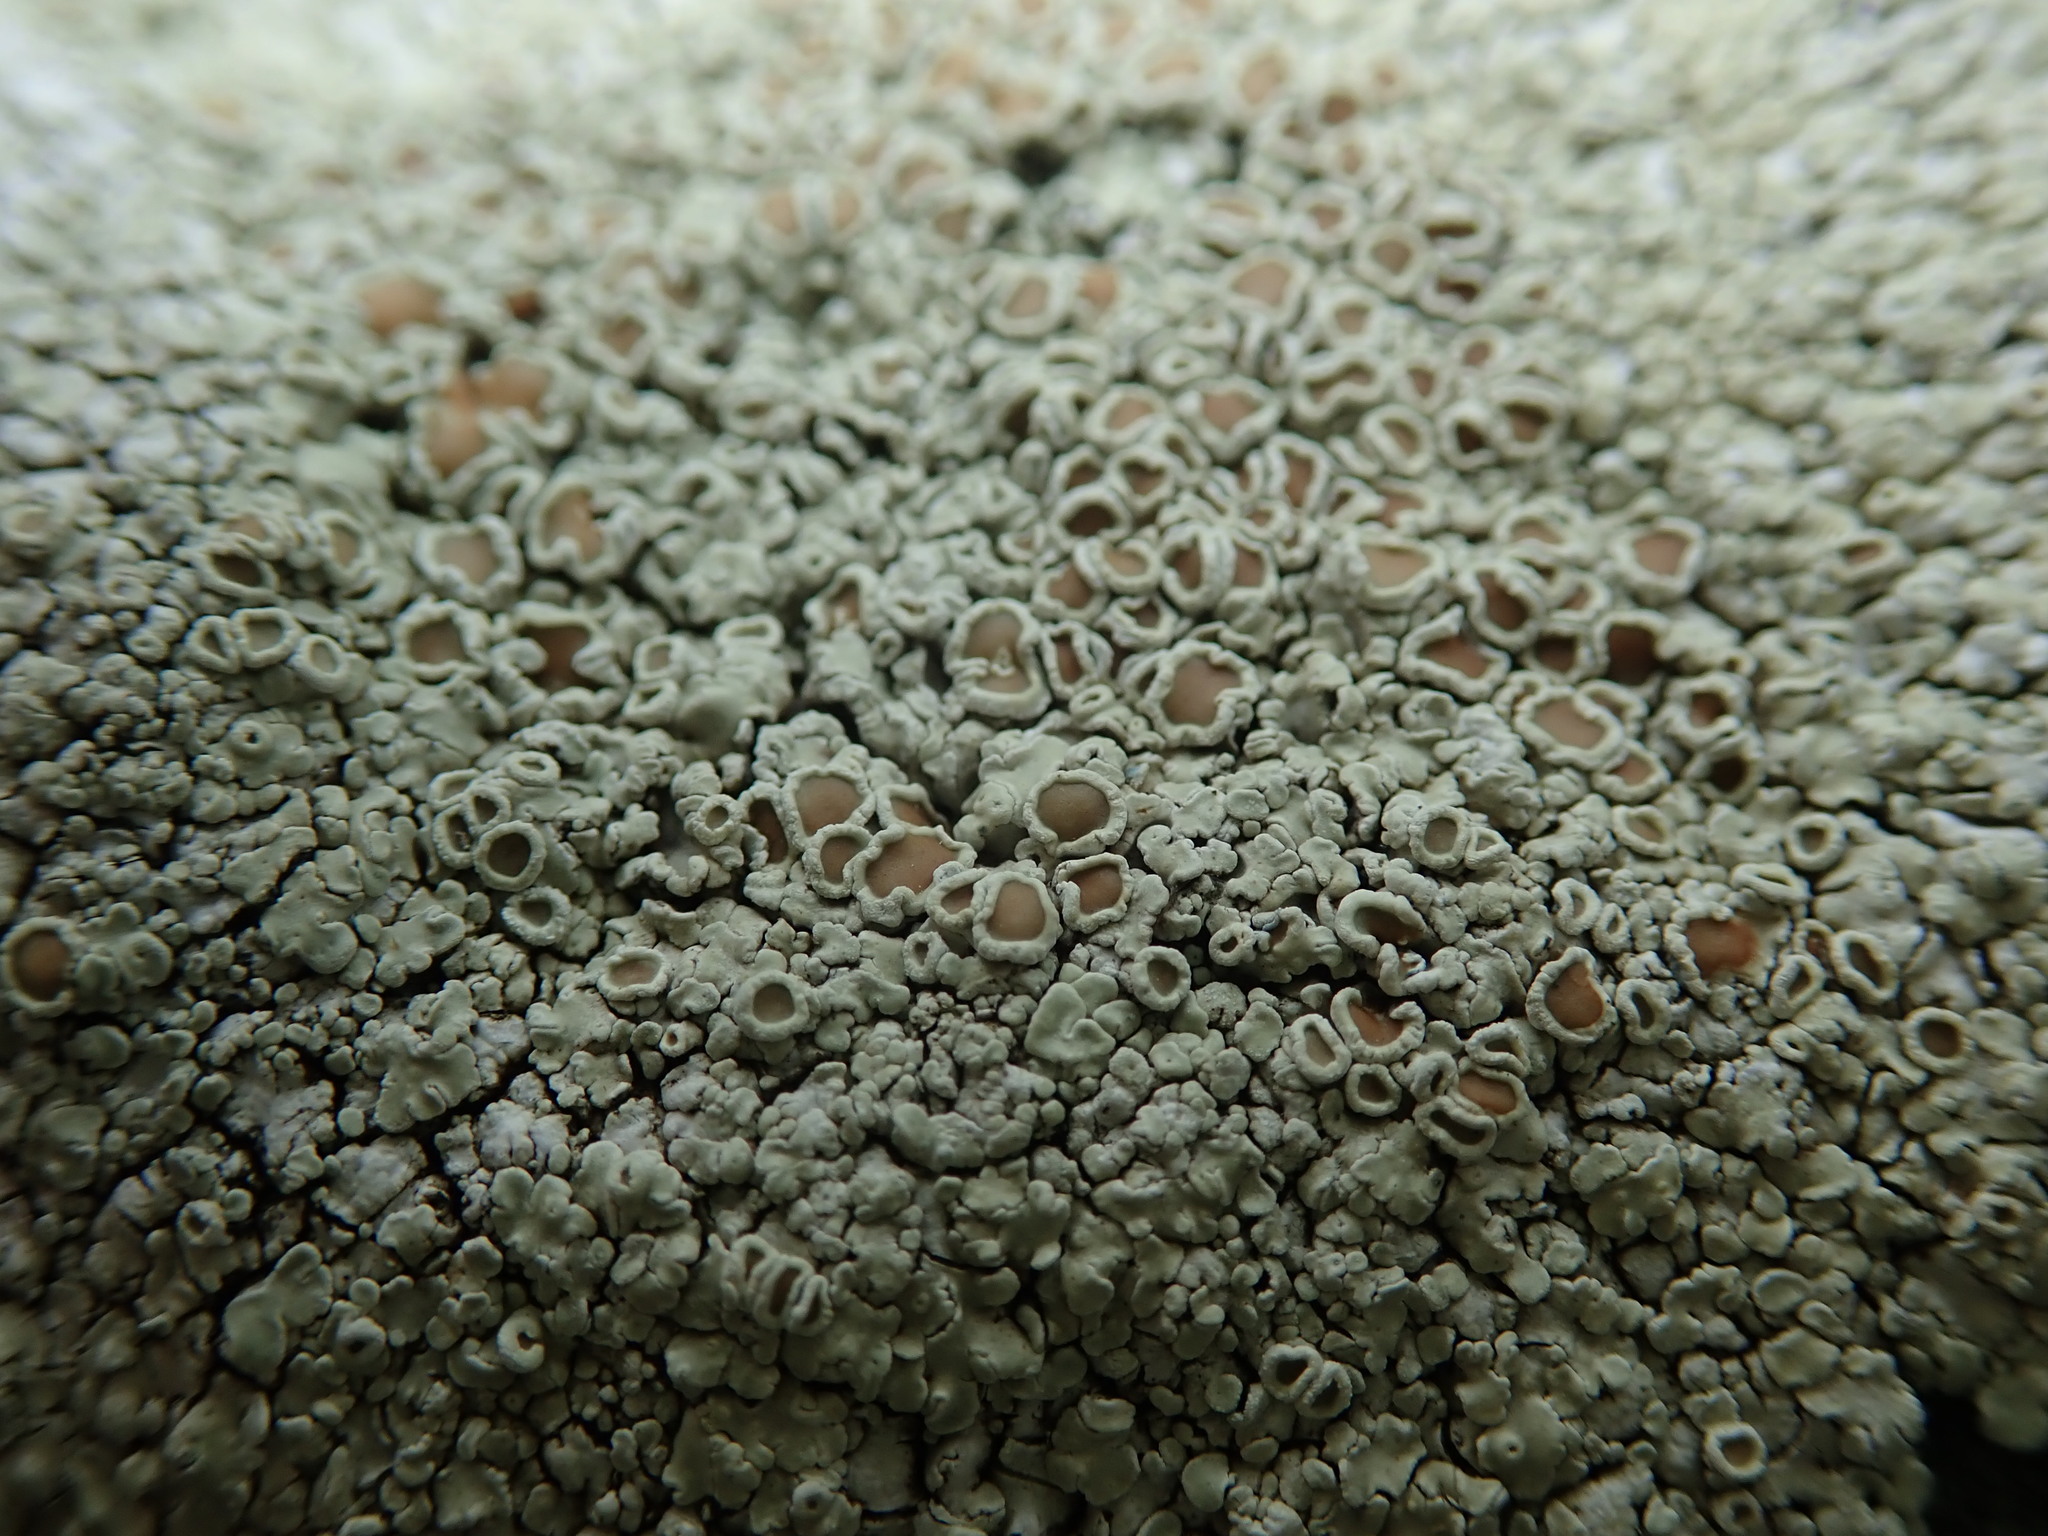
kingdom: Fungi
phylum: Ascomycota
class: Lecanoromycetes
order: Lecanorales
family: Lecanoraceae
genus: Protoparmeliopsis
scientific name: Protoparmeliopsis muralis
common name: Stonewall rim lichen
